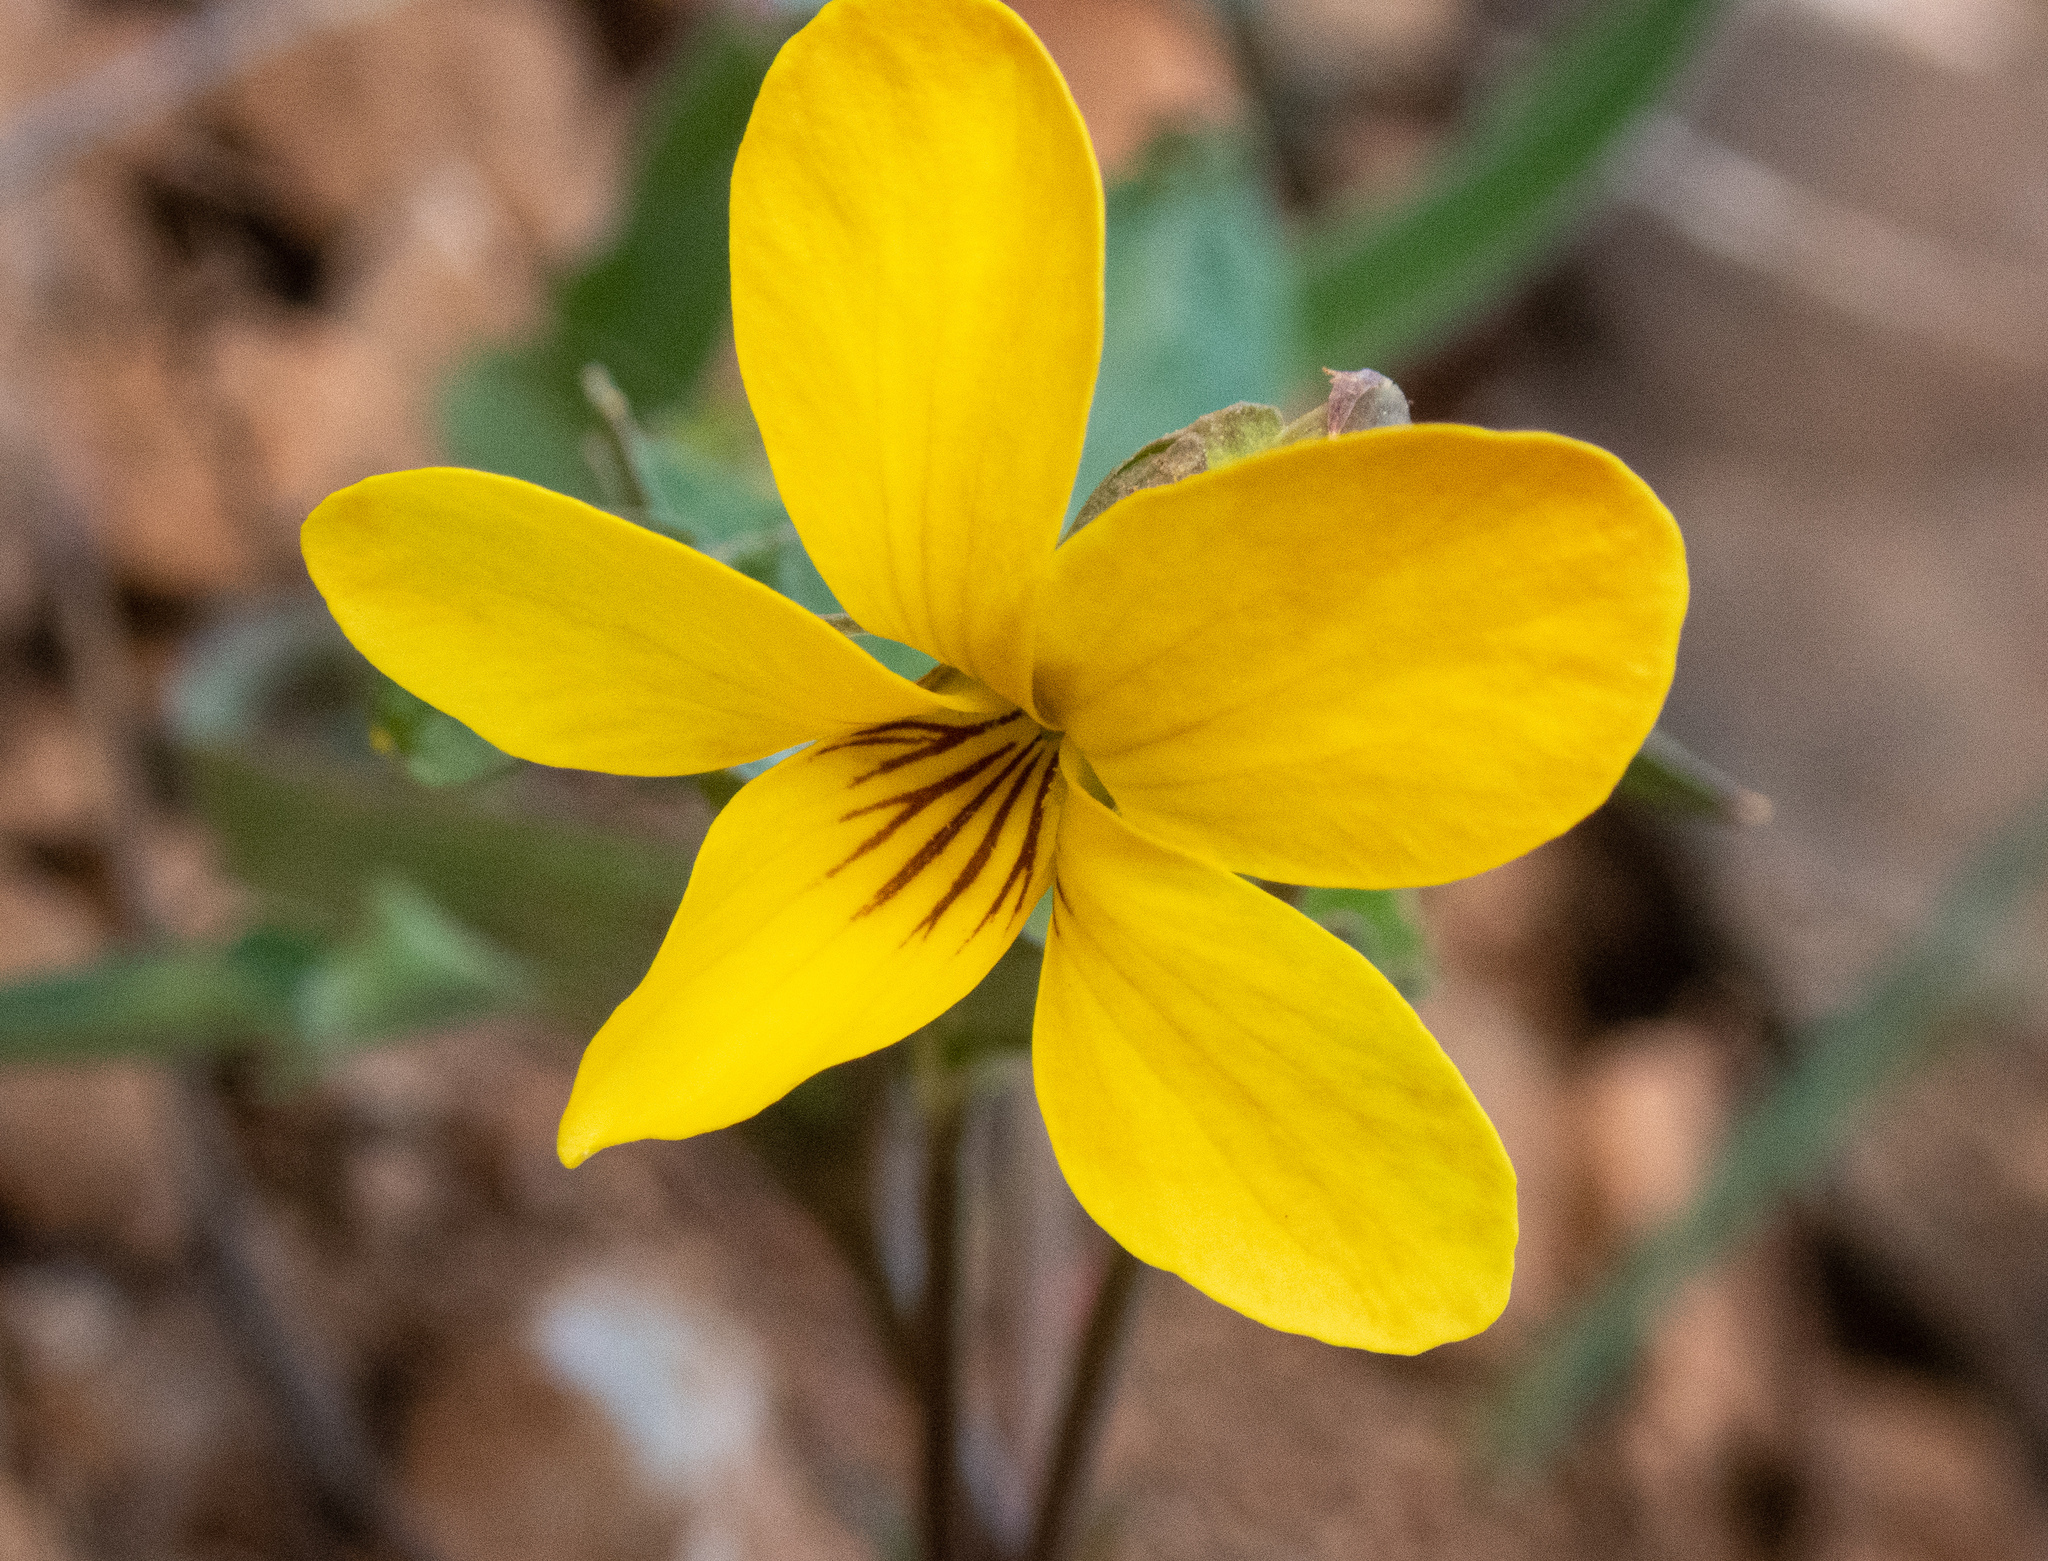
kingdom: Plantae
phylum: Tracheophyta
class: Magnoliopsida
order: Malpighiales
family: Violaceae
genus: Viola
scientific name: Viola lobata
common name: Pine violet
